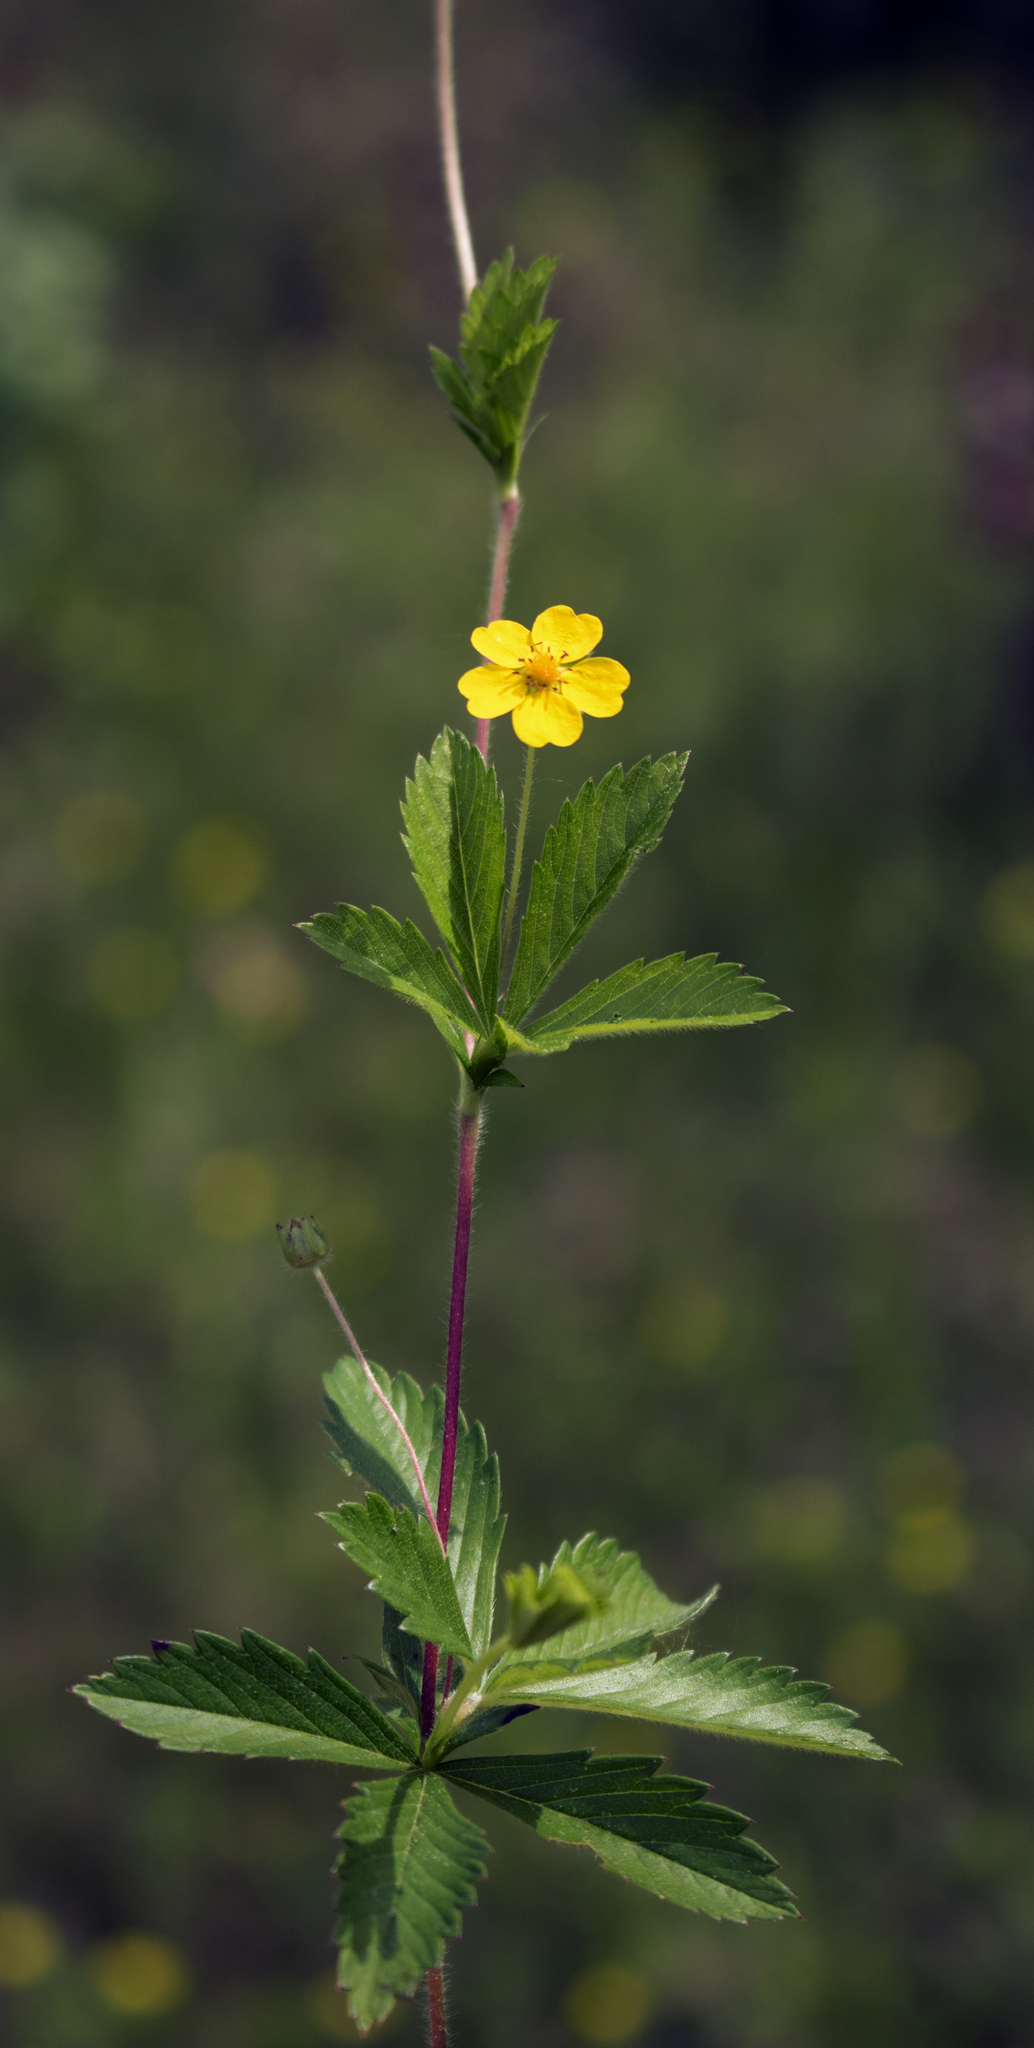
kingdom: Plantae
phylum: Tracheophyta
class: Magnoliopsida
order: Rosales
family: Rosaceae
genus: Potentilla
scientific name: Potentilla simplex
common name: Old field cinquefoil
